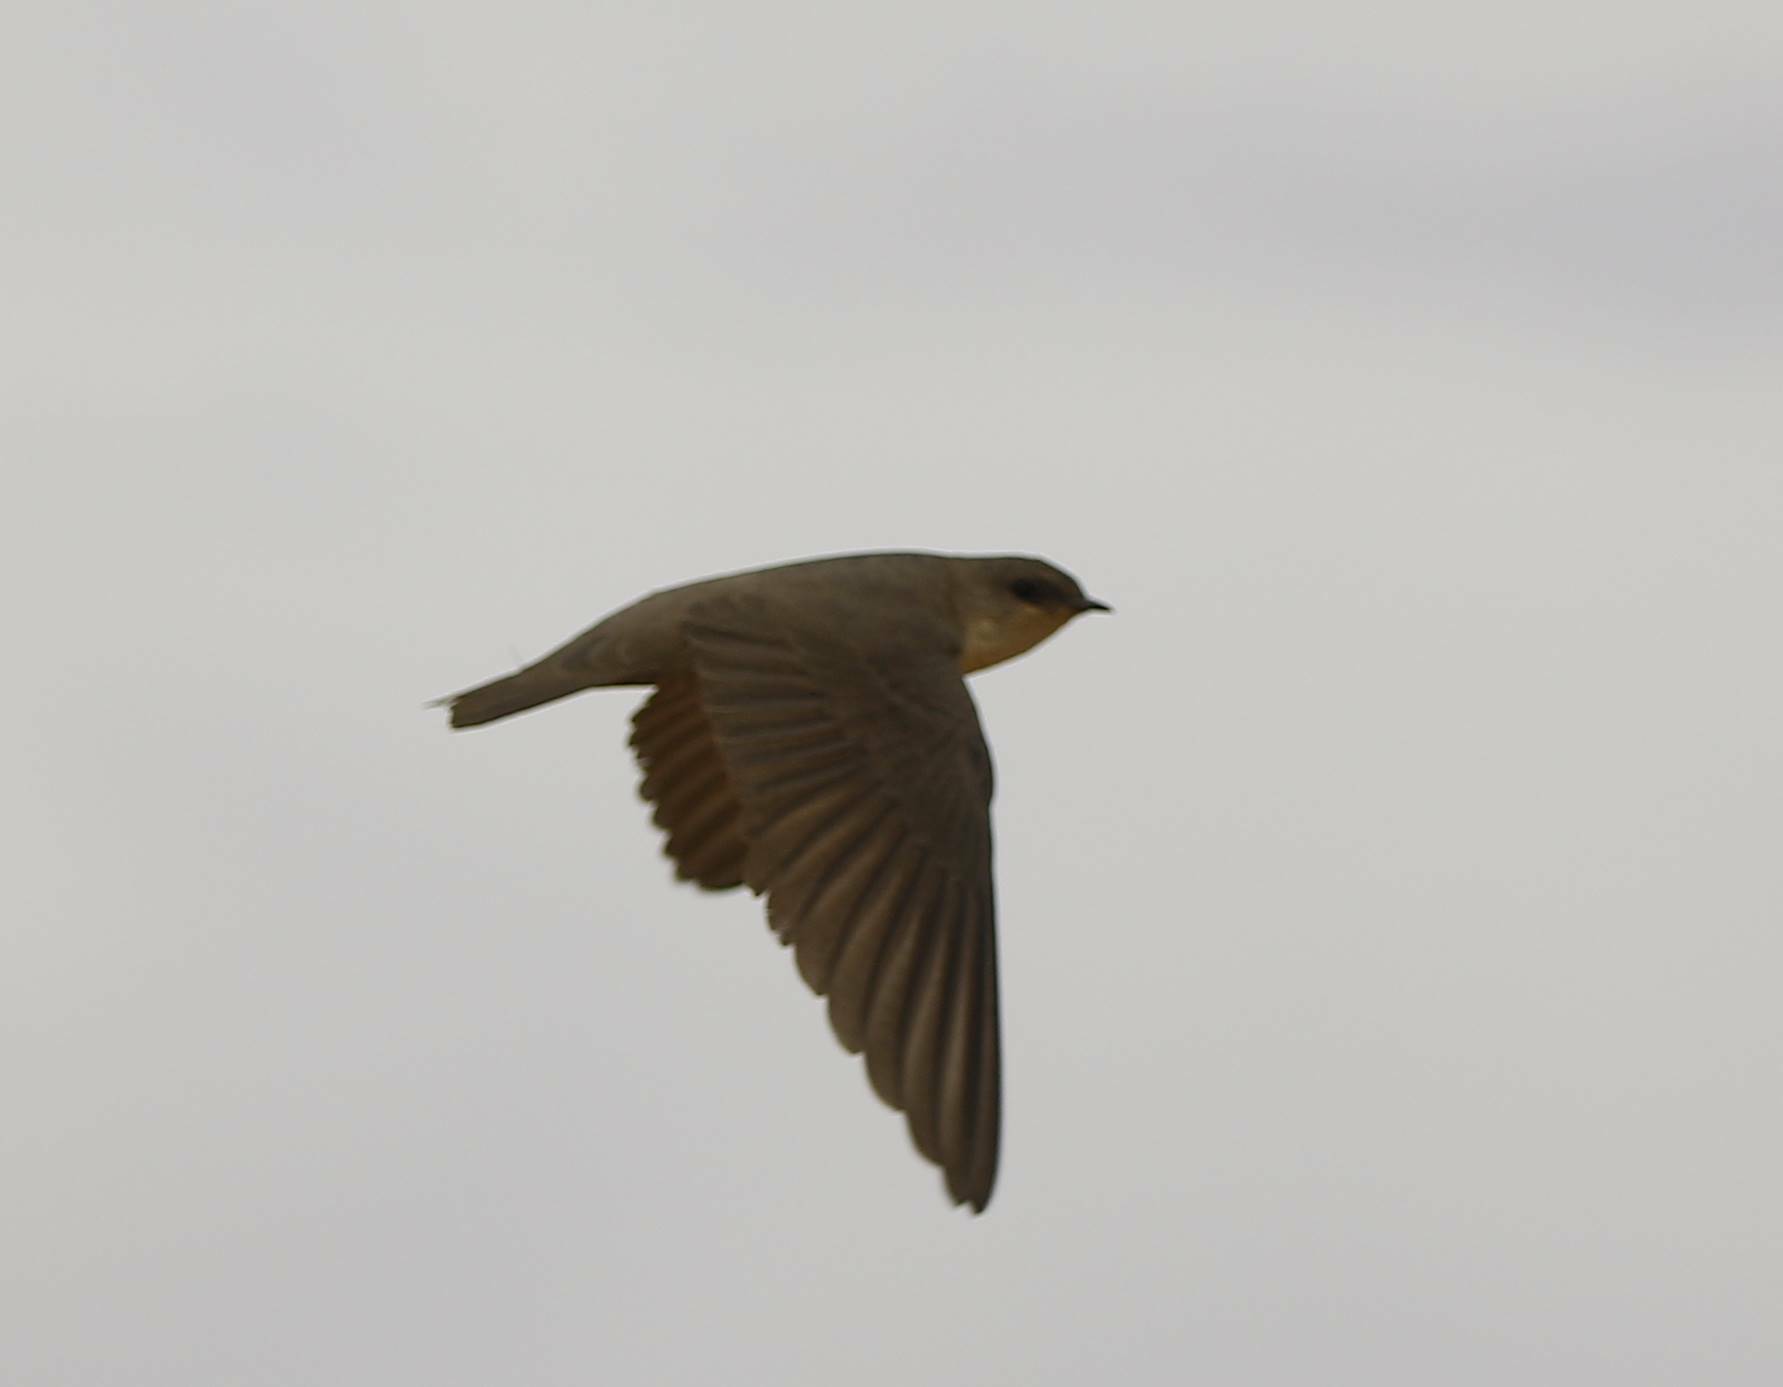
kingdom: Animalia
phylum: Chordata
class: Aves
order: Passeriformes
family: Hirundinidae
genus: Ptyonoprogne
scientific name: Ptyonoprogne fuligula
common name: Rock martin
